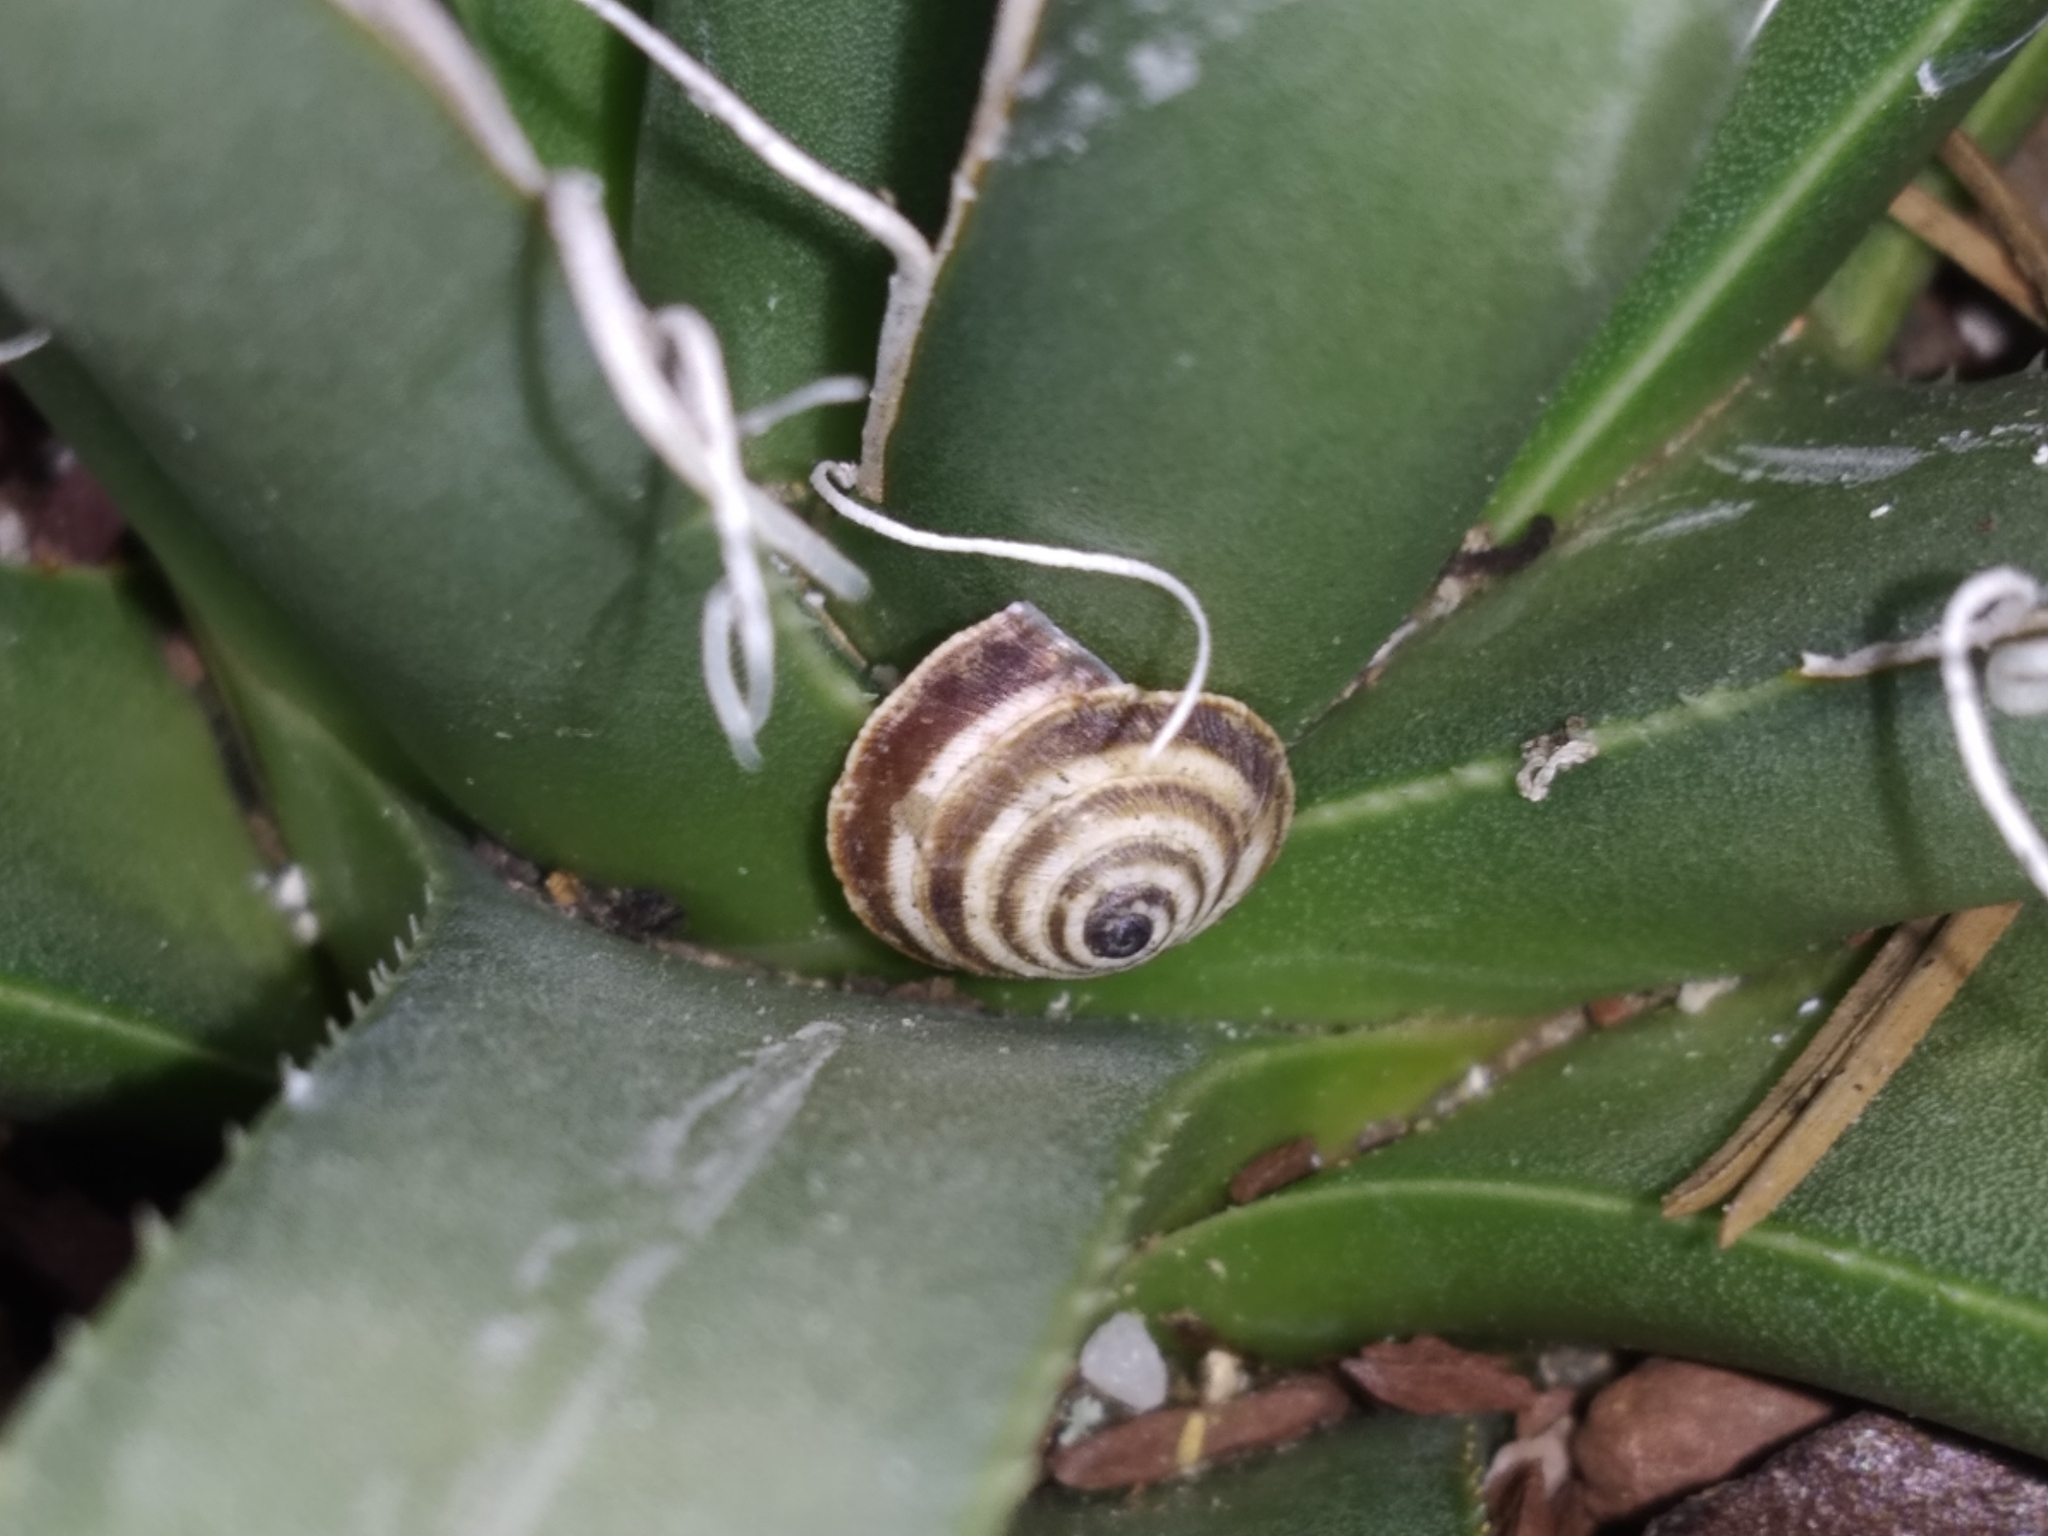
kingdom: Animalia
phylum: Mollusca
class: Gastropoda
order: Stylommatophora
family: Geomitridae
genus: Trochoidea
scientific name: Trochoidea elegans
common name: Elegant helicellid
